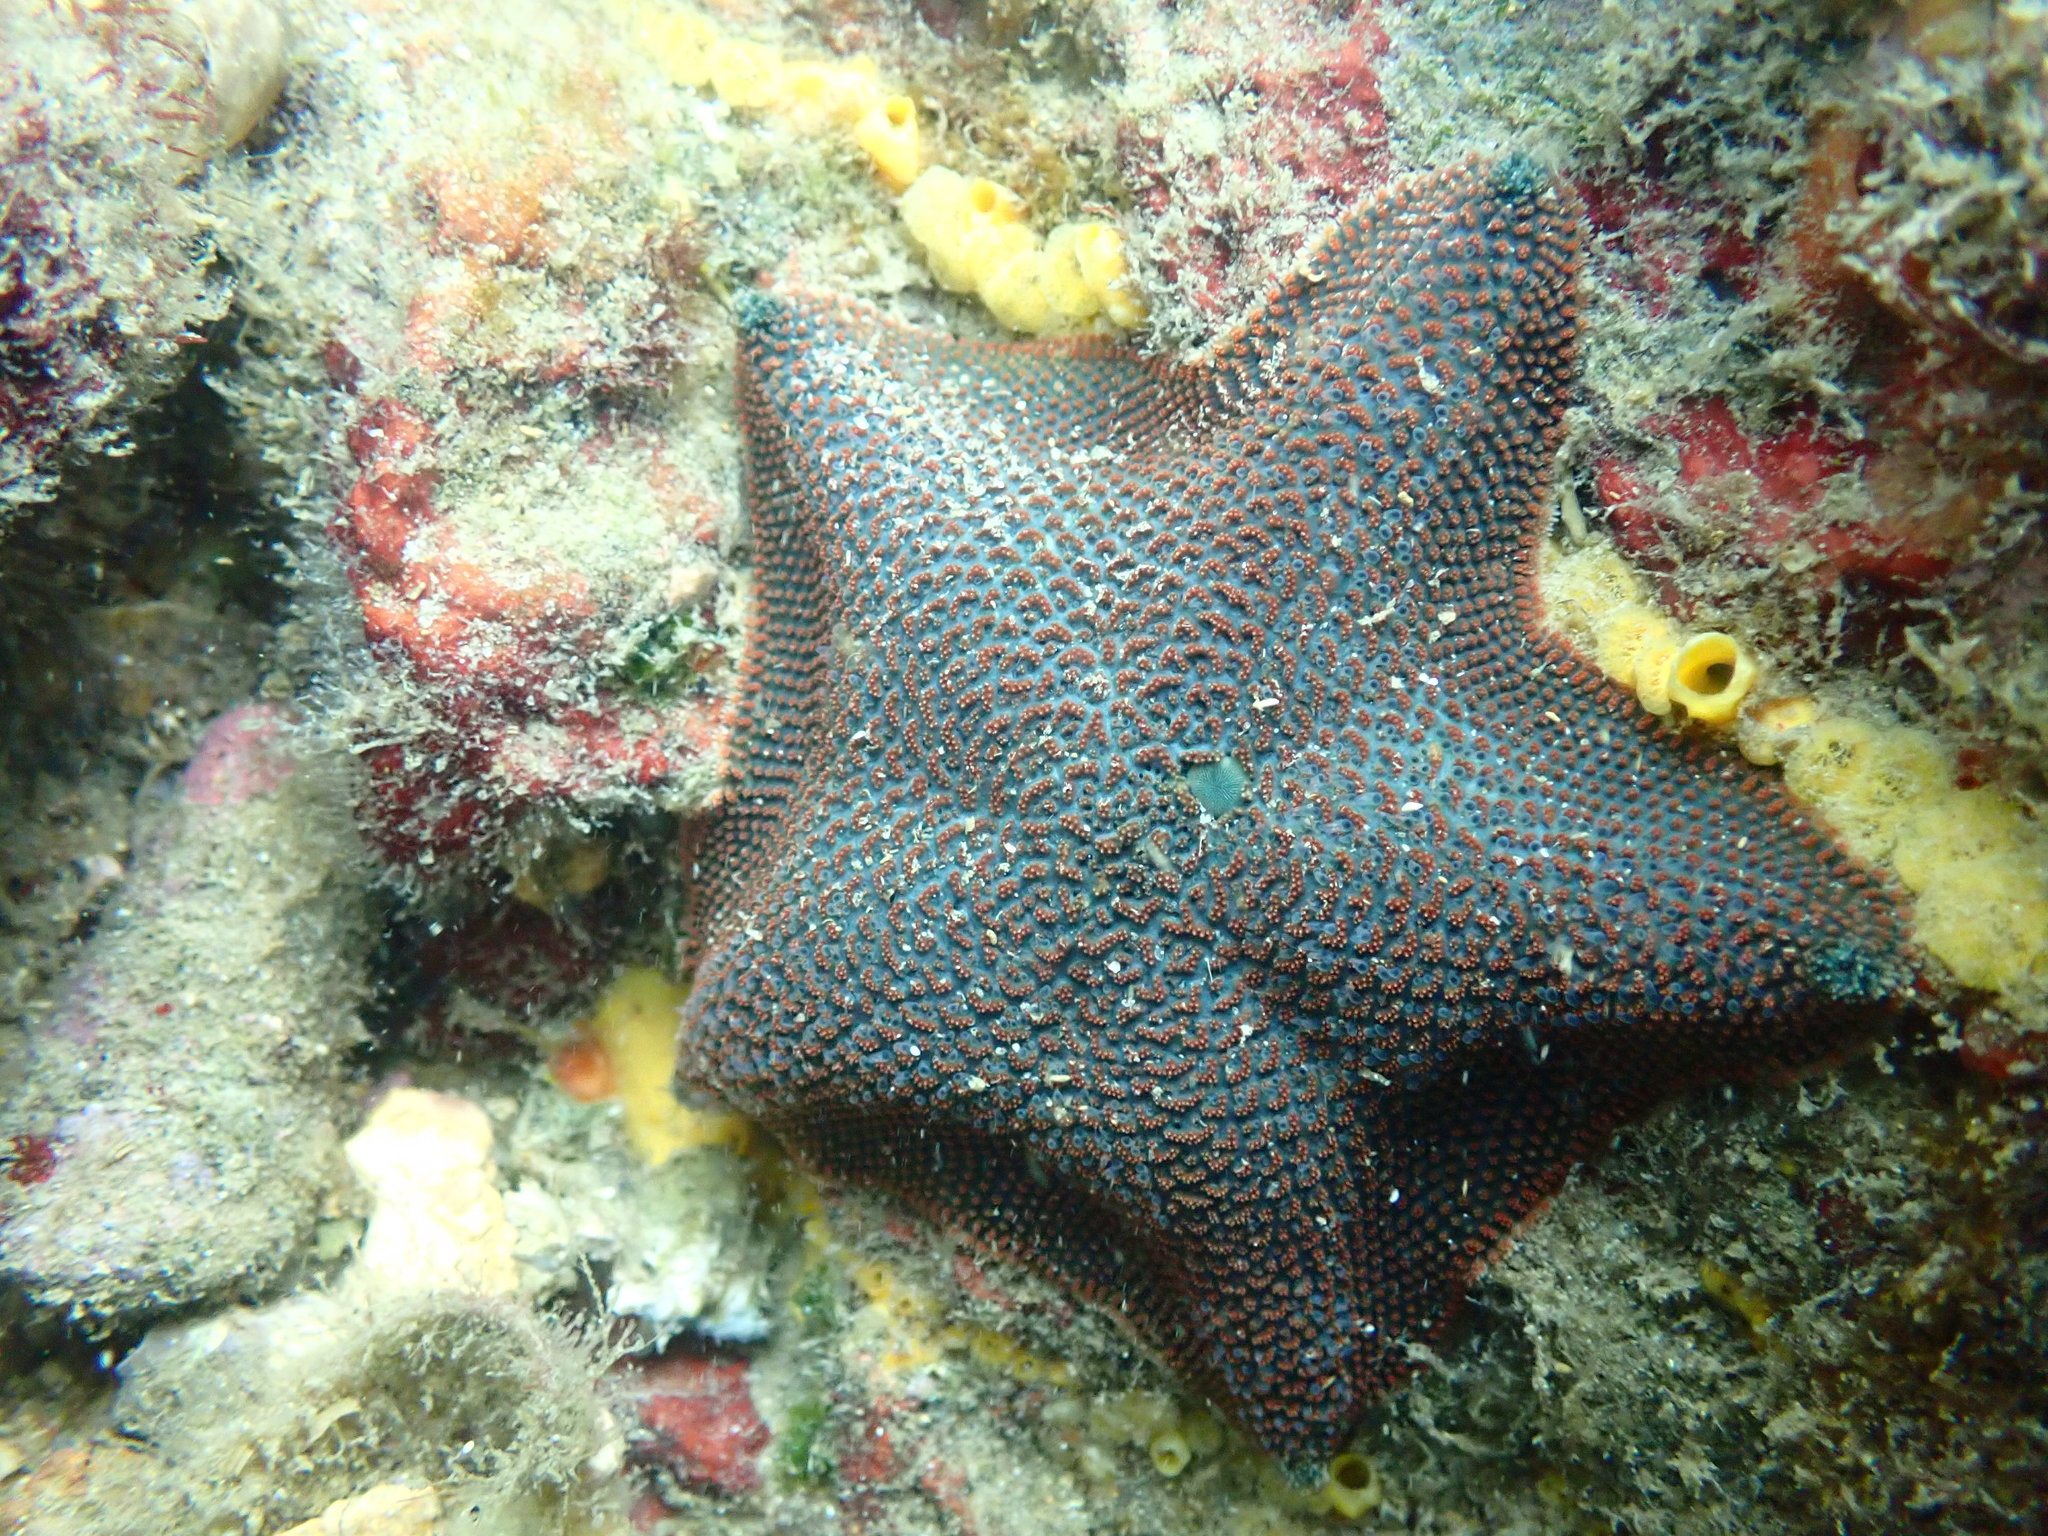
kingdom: Animalia
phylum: Echinodermata
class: Asteroidea
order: Valvatida
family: Asterinidae
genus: Patiriella
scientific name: Patiriella regularis
